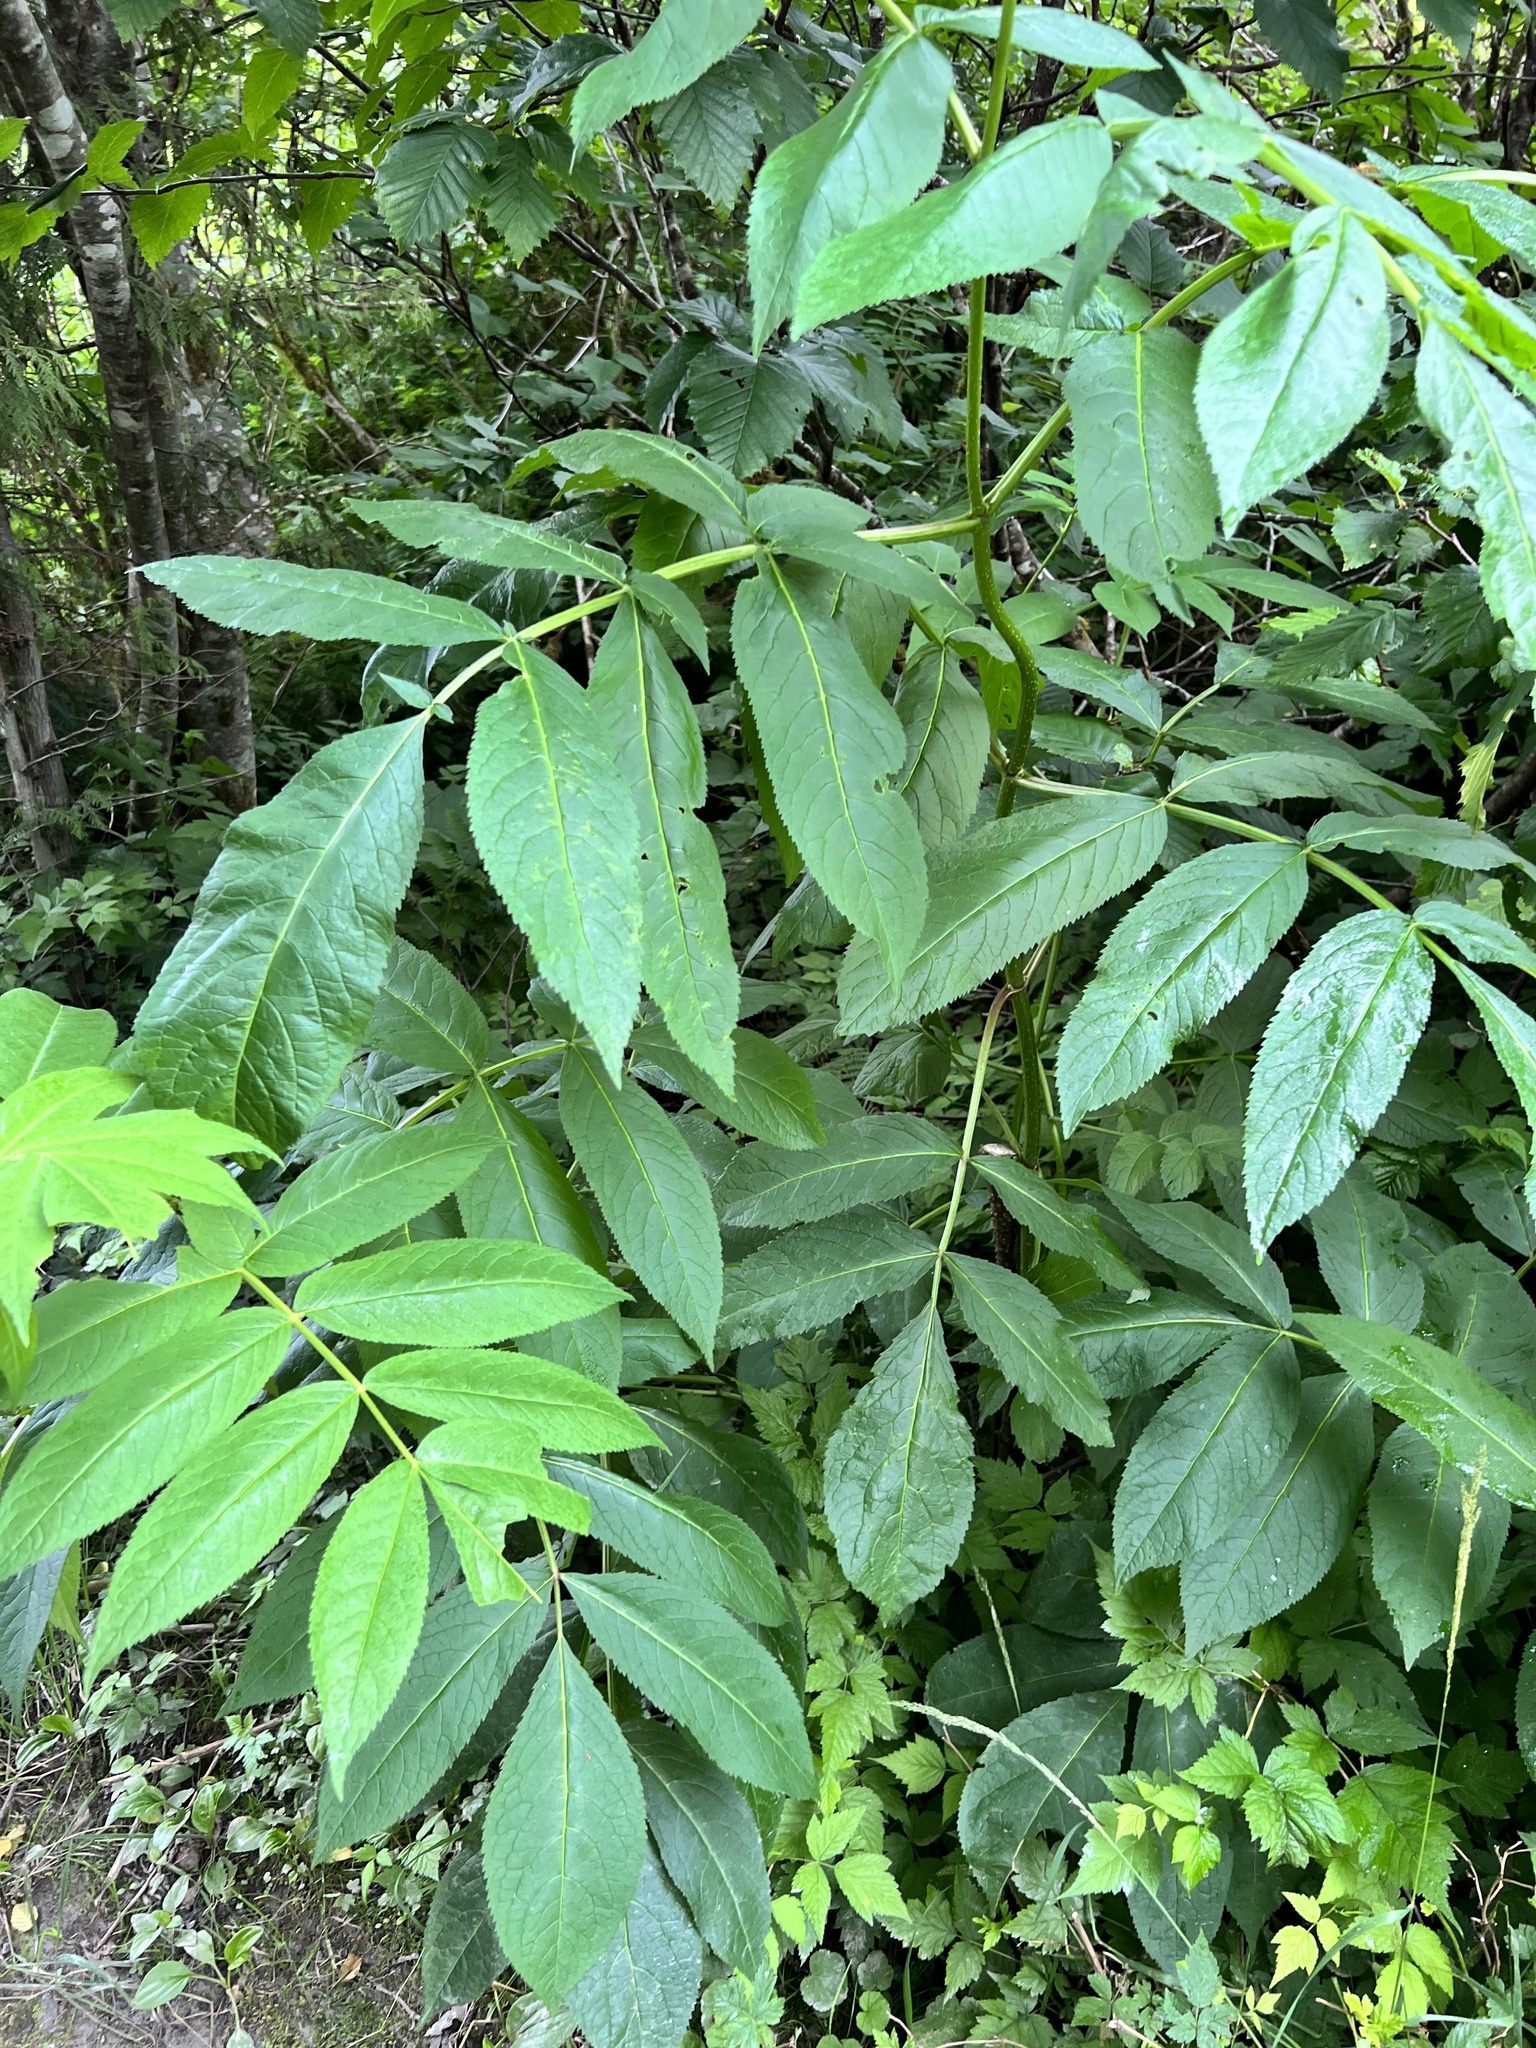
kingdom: Plantae
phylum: Tracheophyta
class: Magnoliopsida
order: Dipsacales
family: Viburnaceae
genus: Sambucus
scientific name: Sambucus racemosa
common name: Red-berried elder
